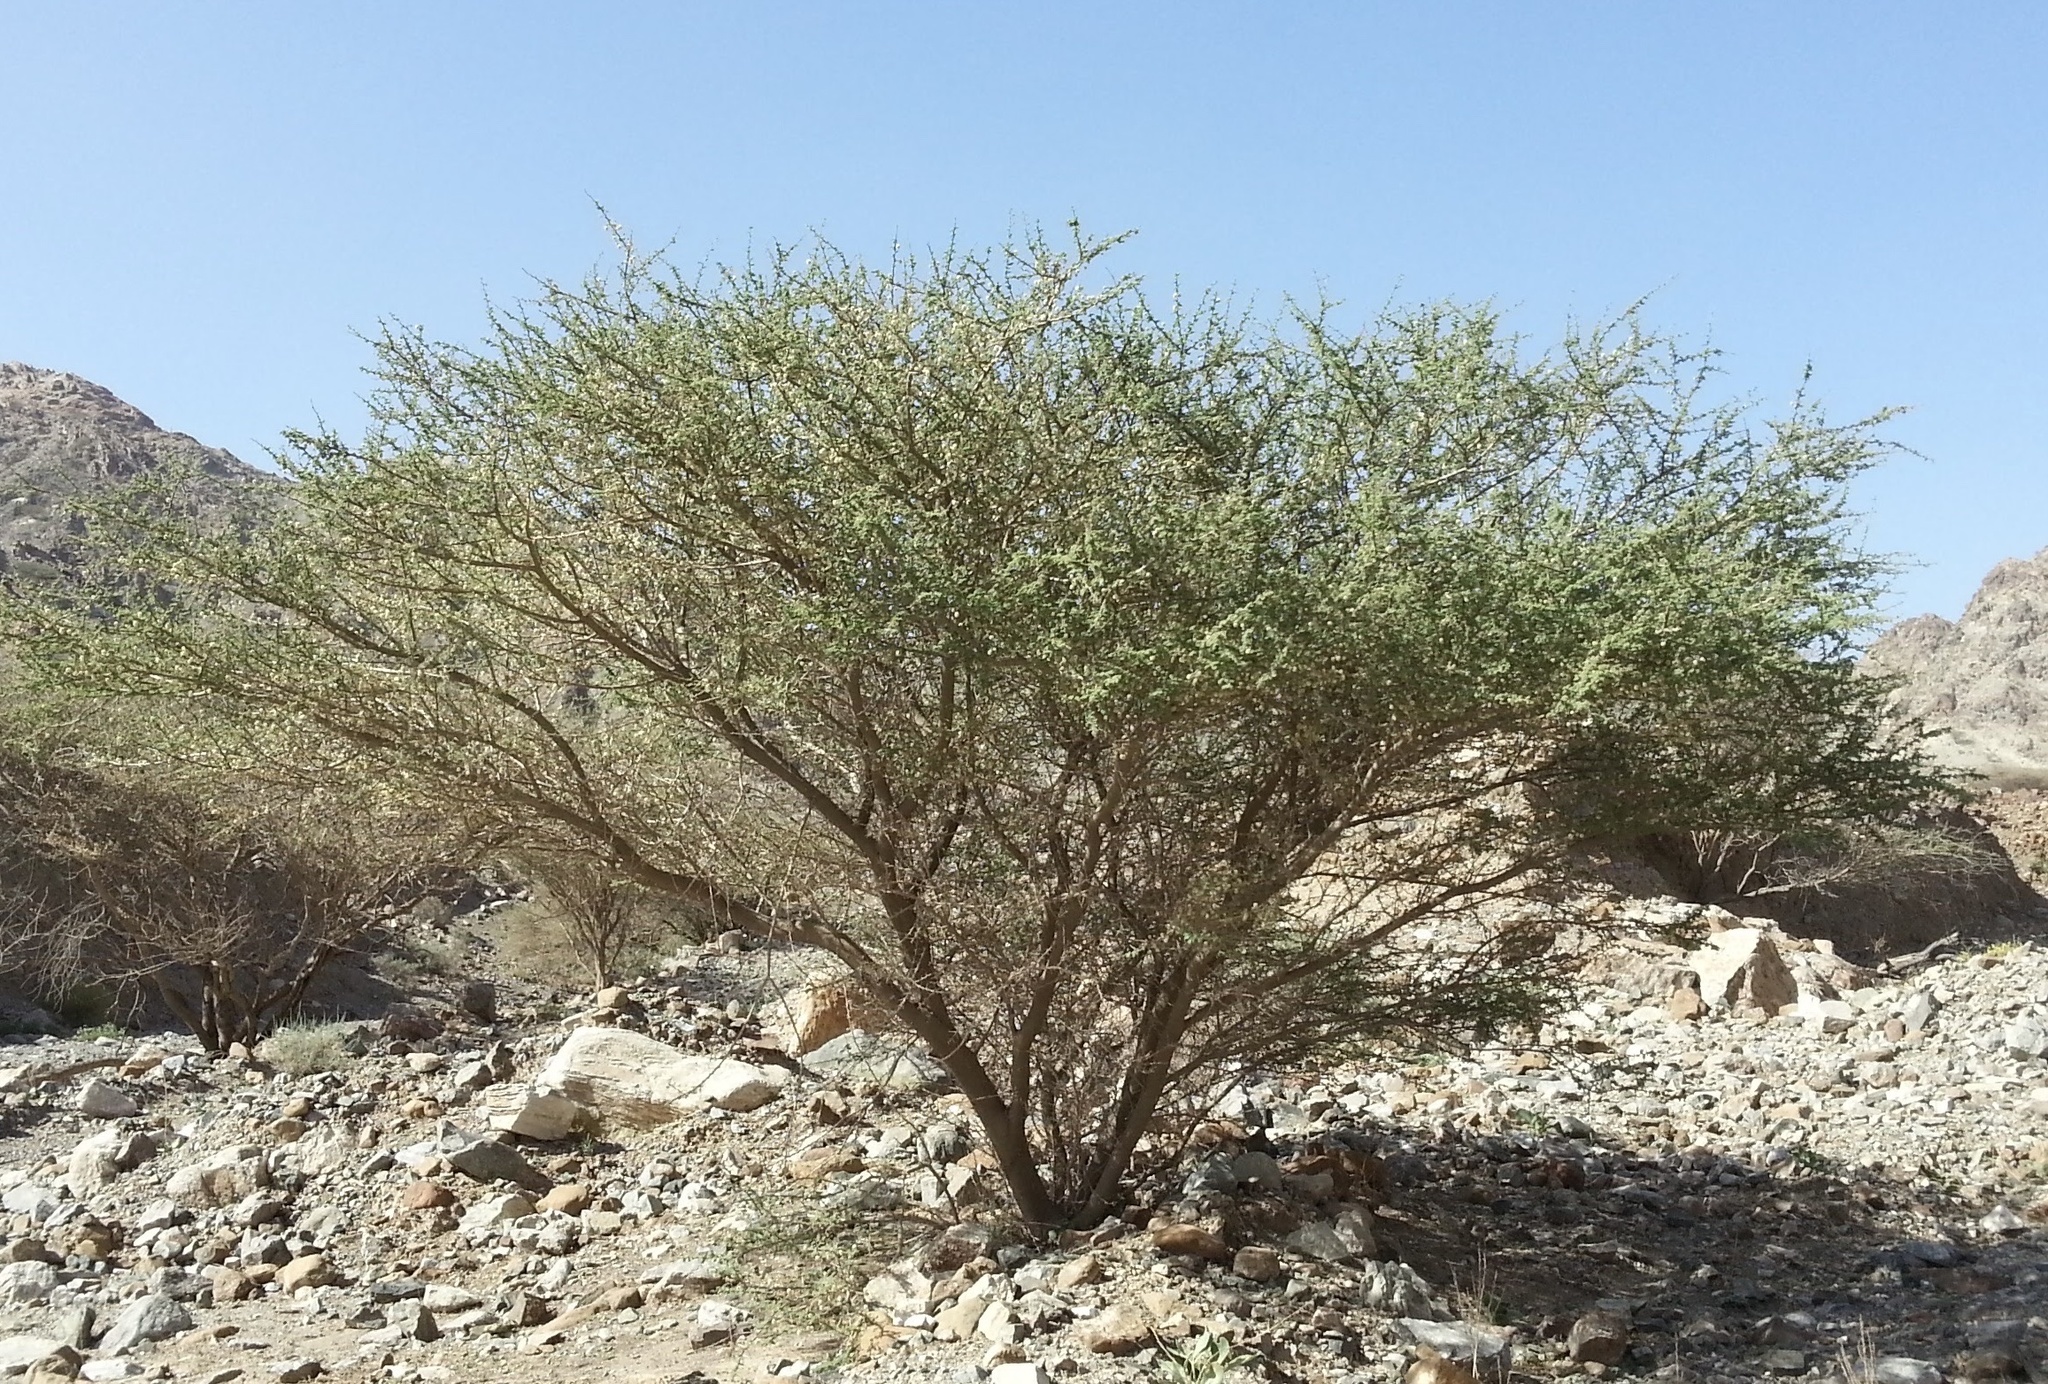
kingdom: Plantae
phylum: Tracheophyta
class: Magnoliopsida
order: Fabales
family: Fabaceae
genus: Vachellia
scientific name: Vachellia tortilis
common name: Umbrella thorn acacia
